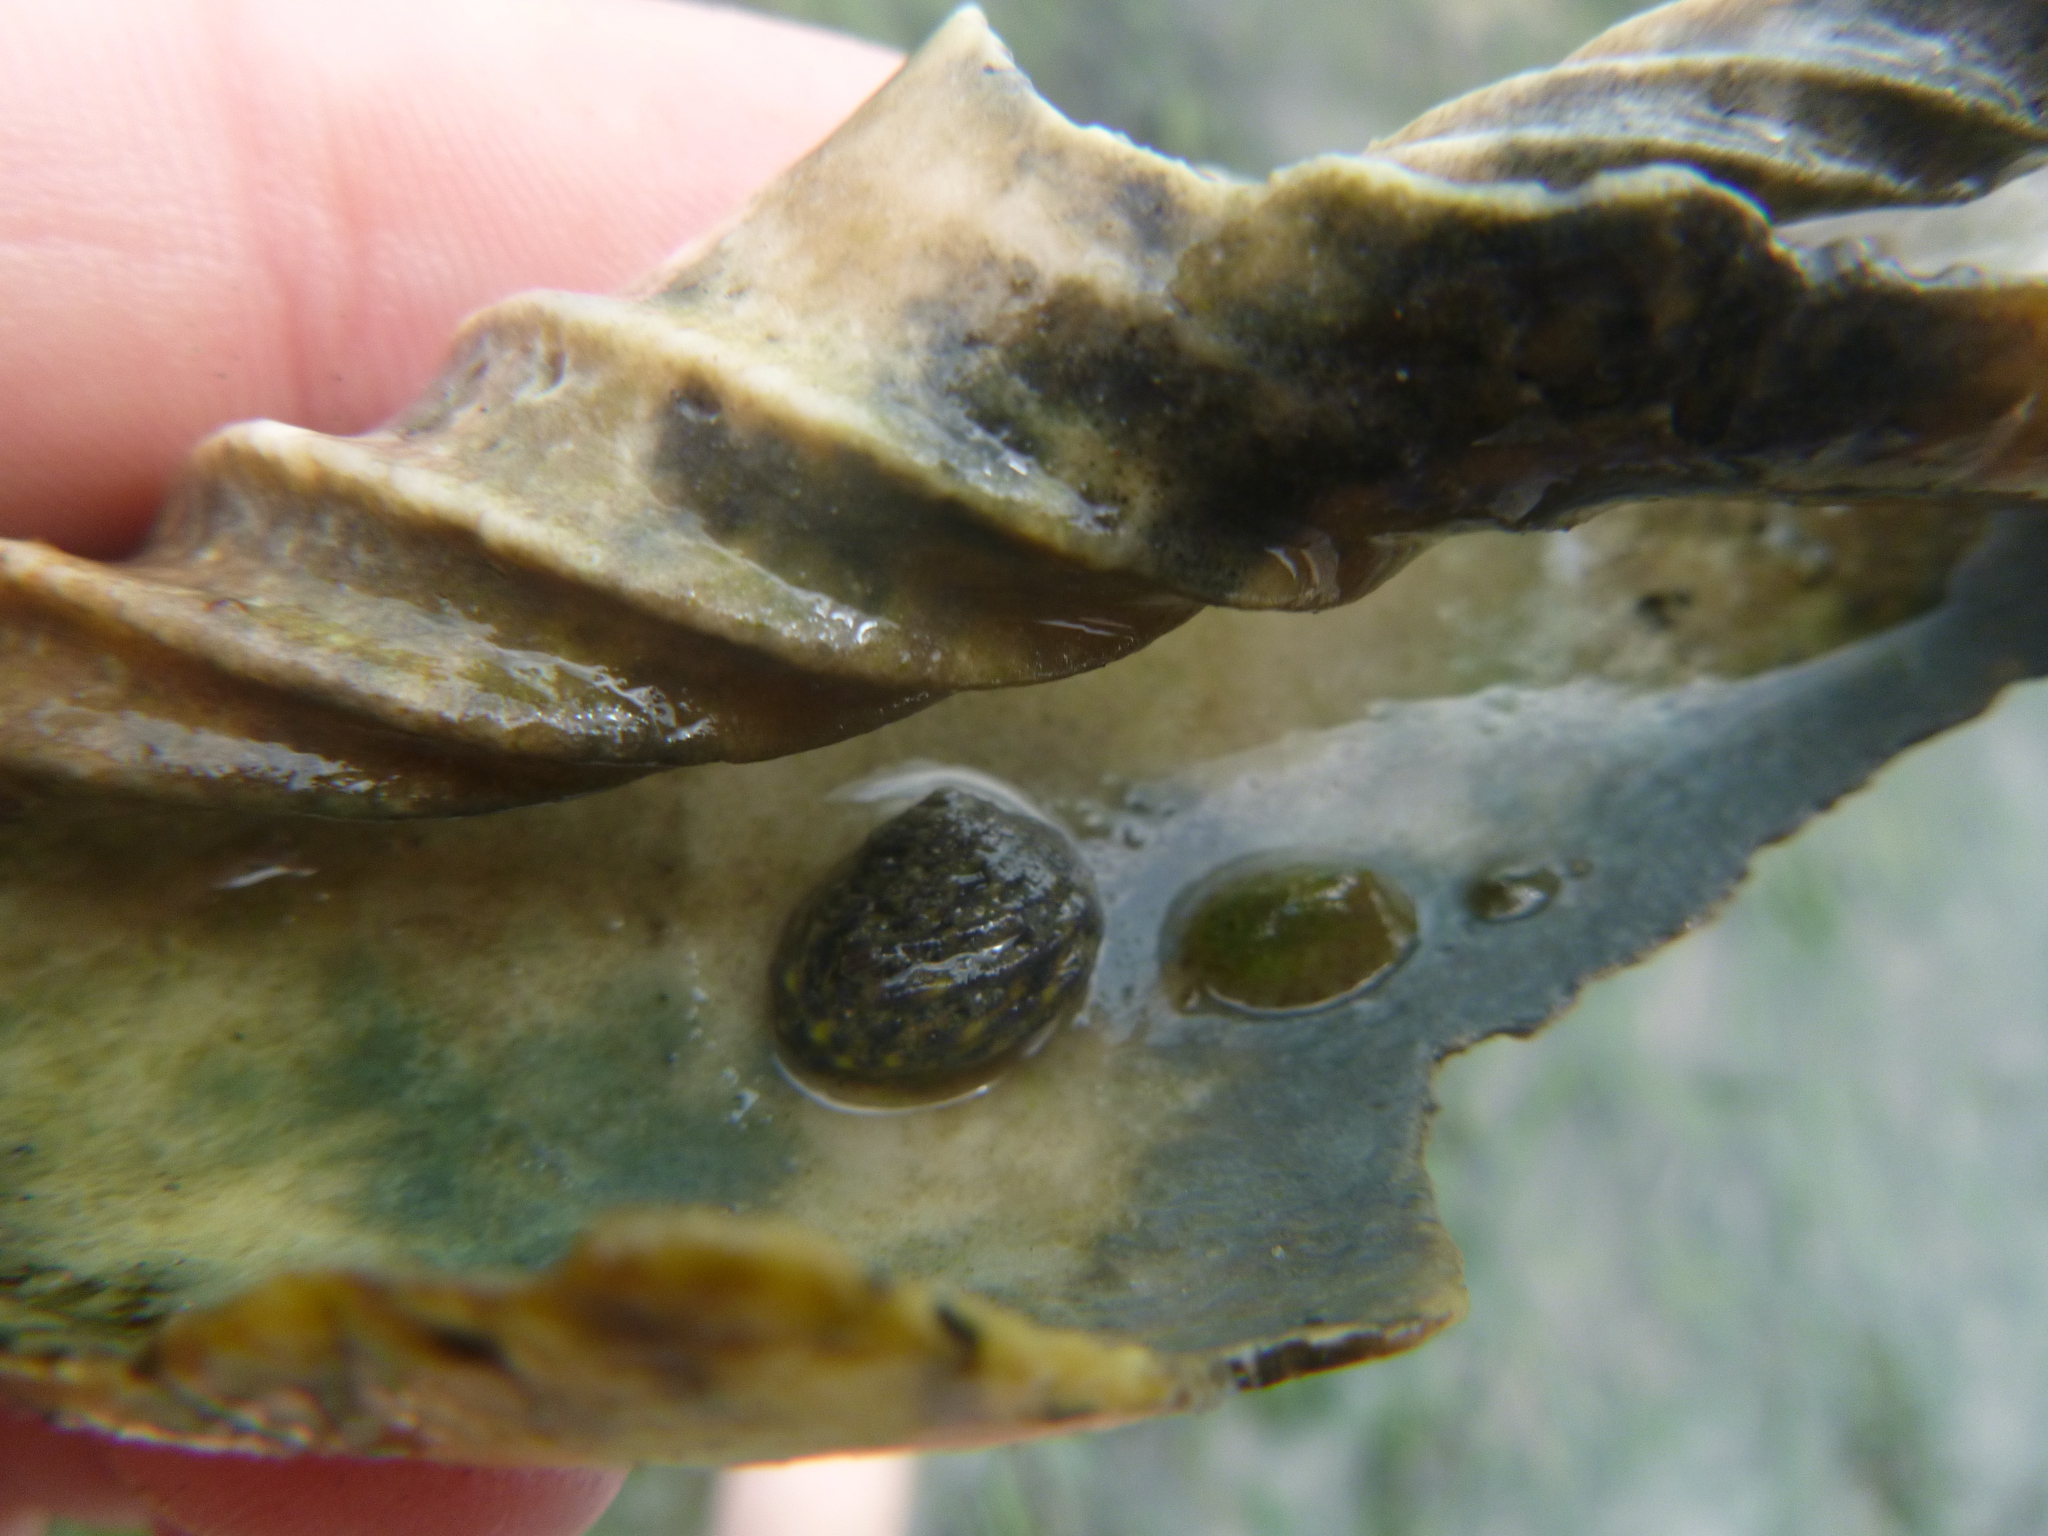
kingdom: Animalia
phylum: Mollusca
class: Gastropoda
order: Trochida
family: Trochidae
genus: Diloma
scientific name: Diloma subrostratum
